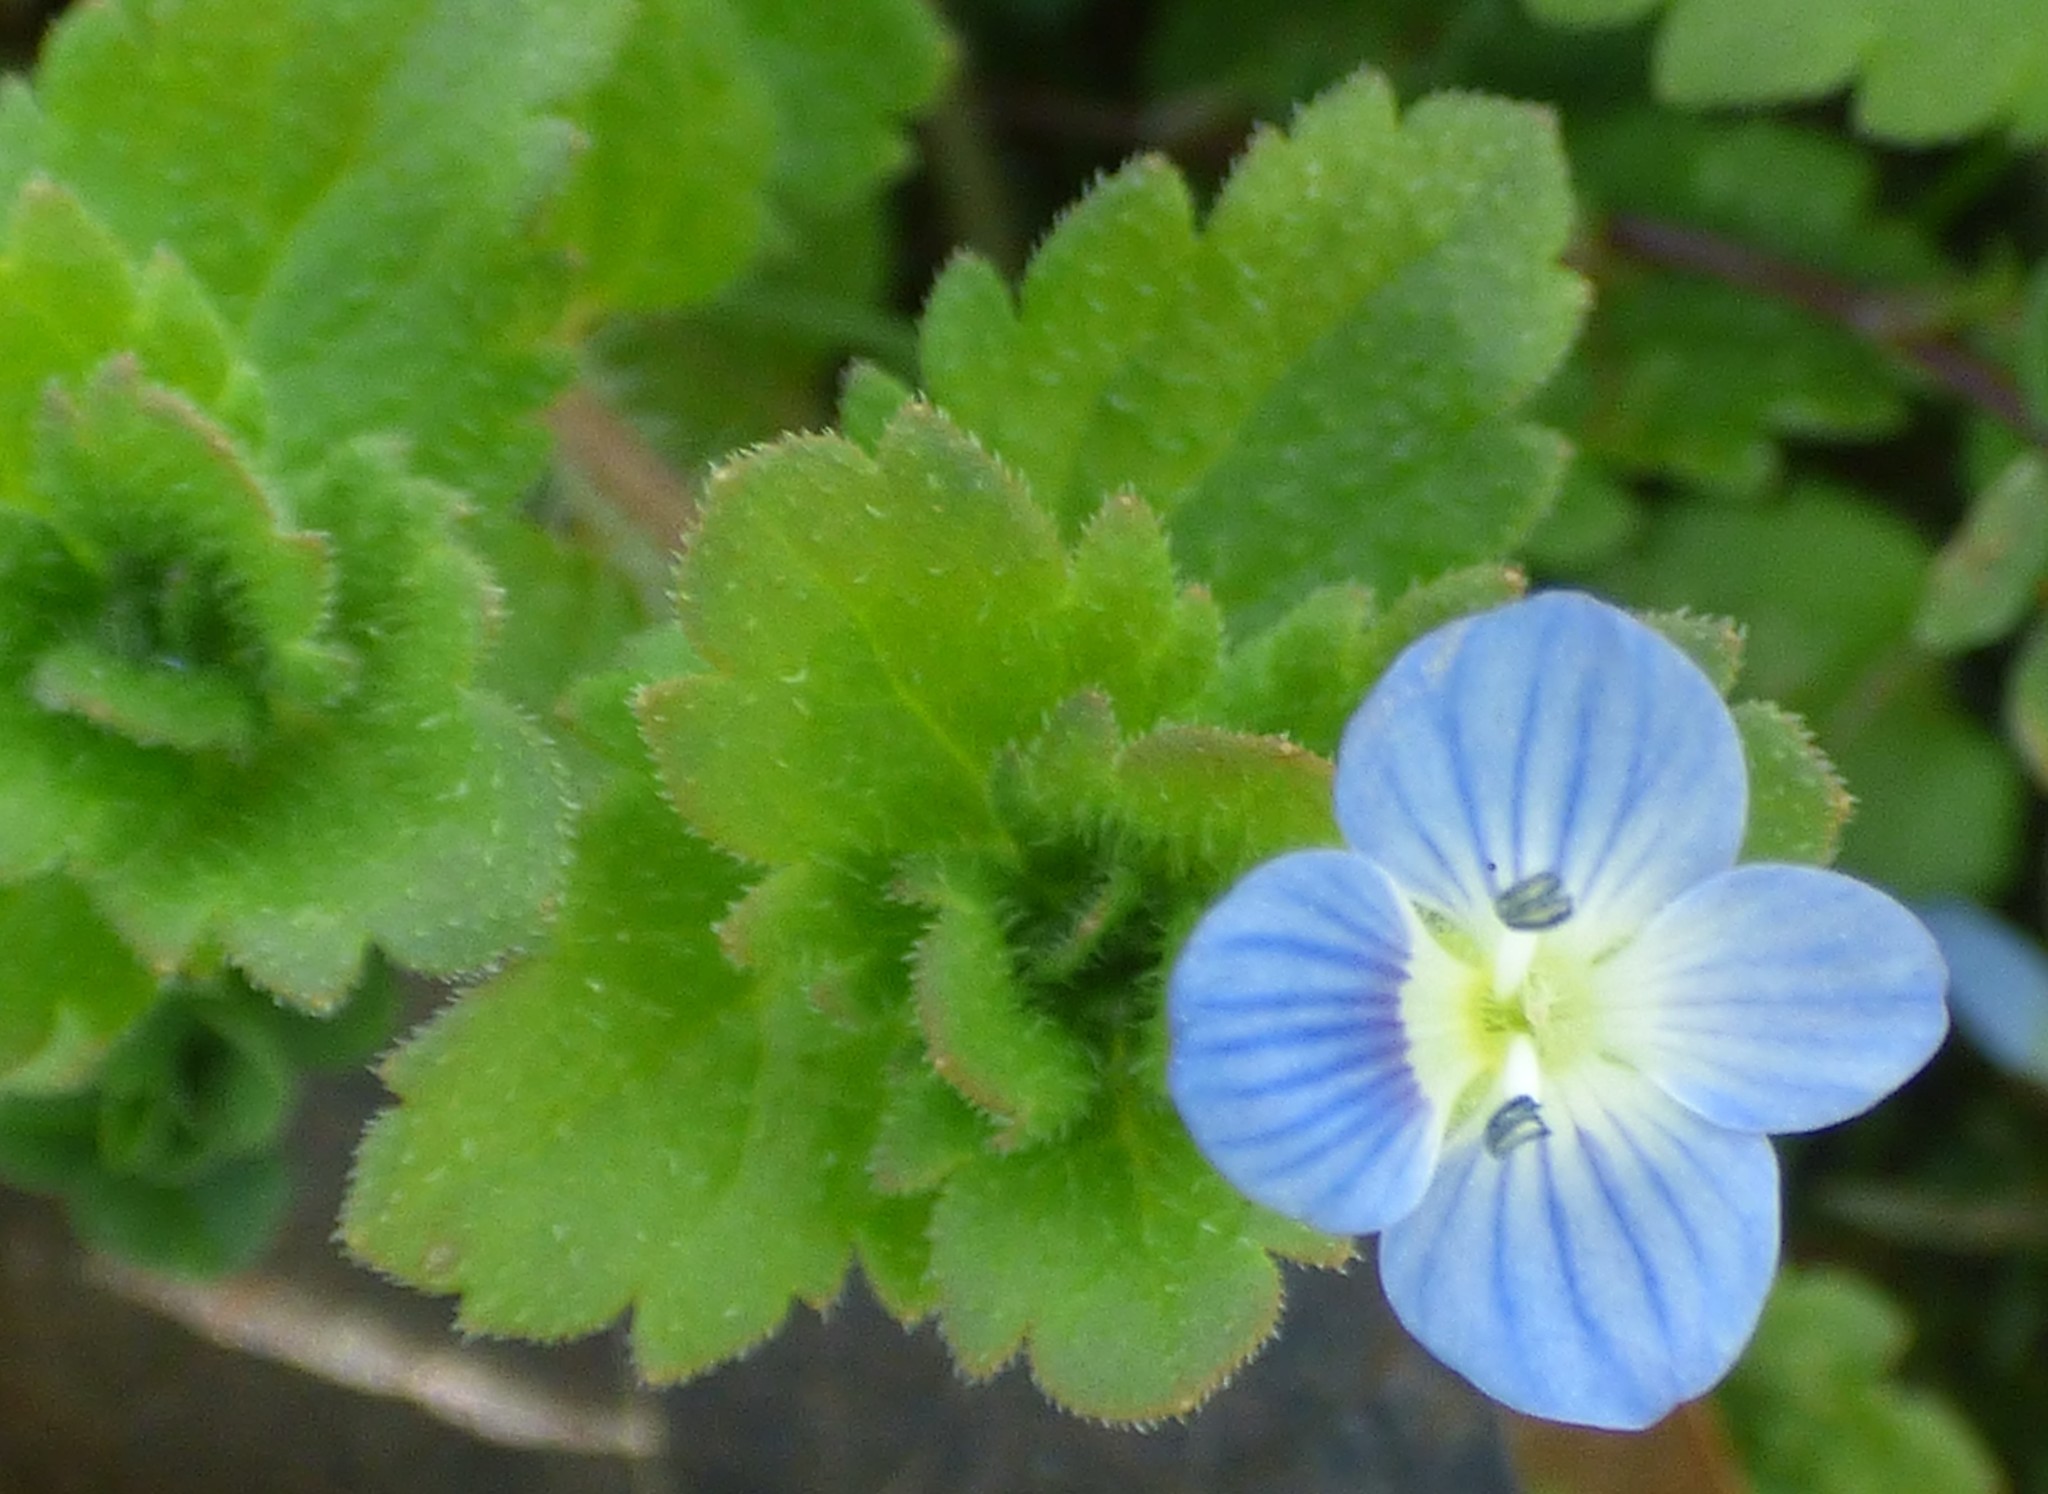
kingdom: Plantae
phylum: Tracheophyta
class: Magnoliopsida
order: Lamiales
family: Plantaginaceae
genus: Veronica
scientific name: Veronica persica
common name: Common field-speedwell
